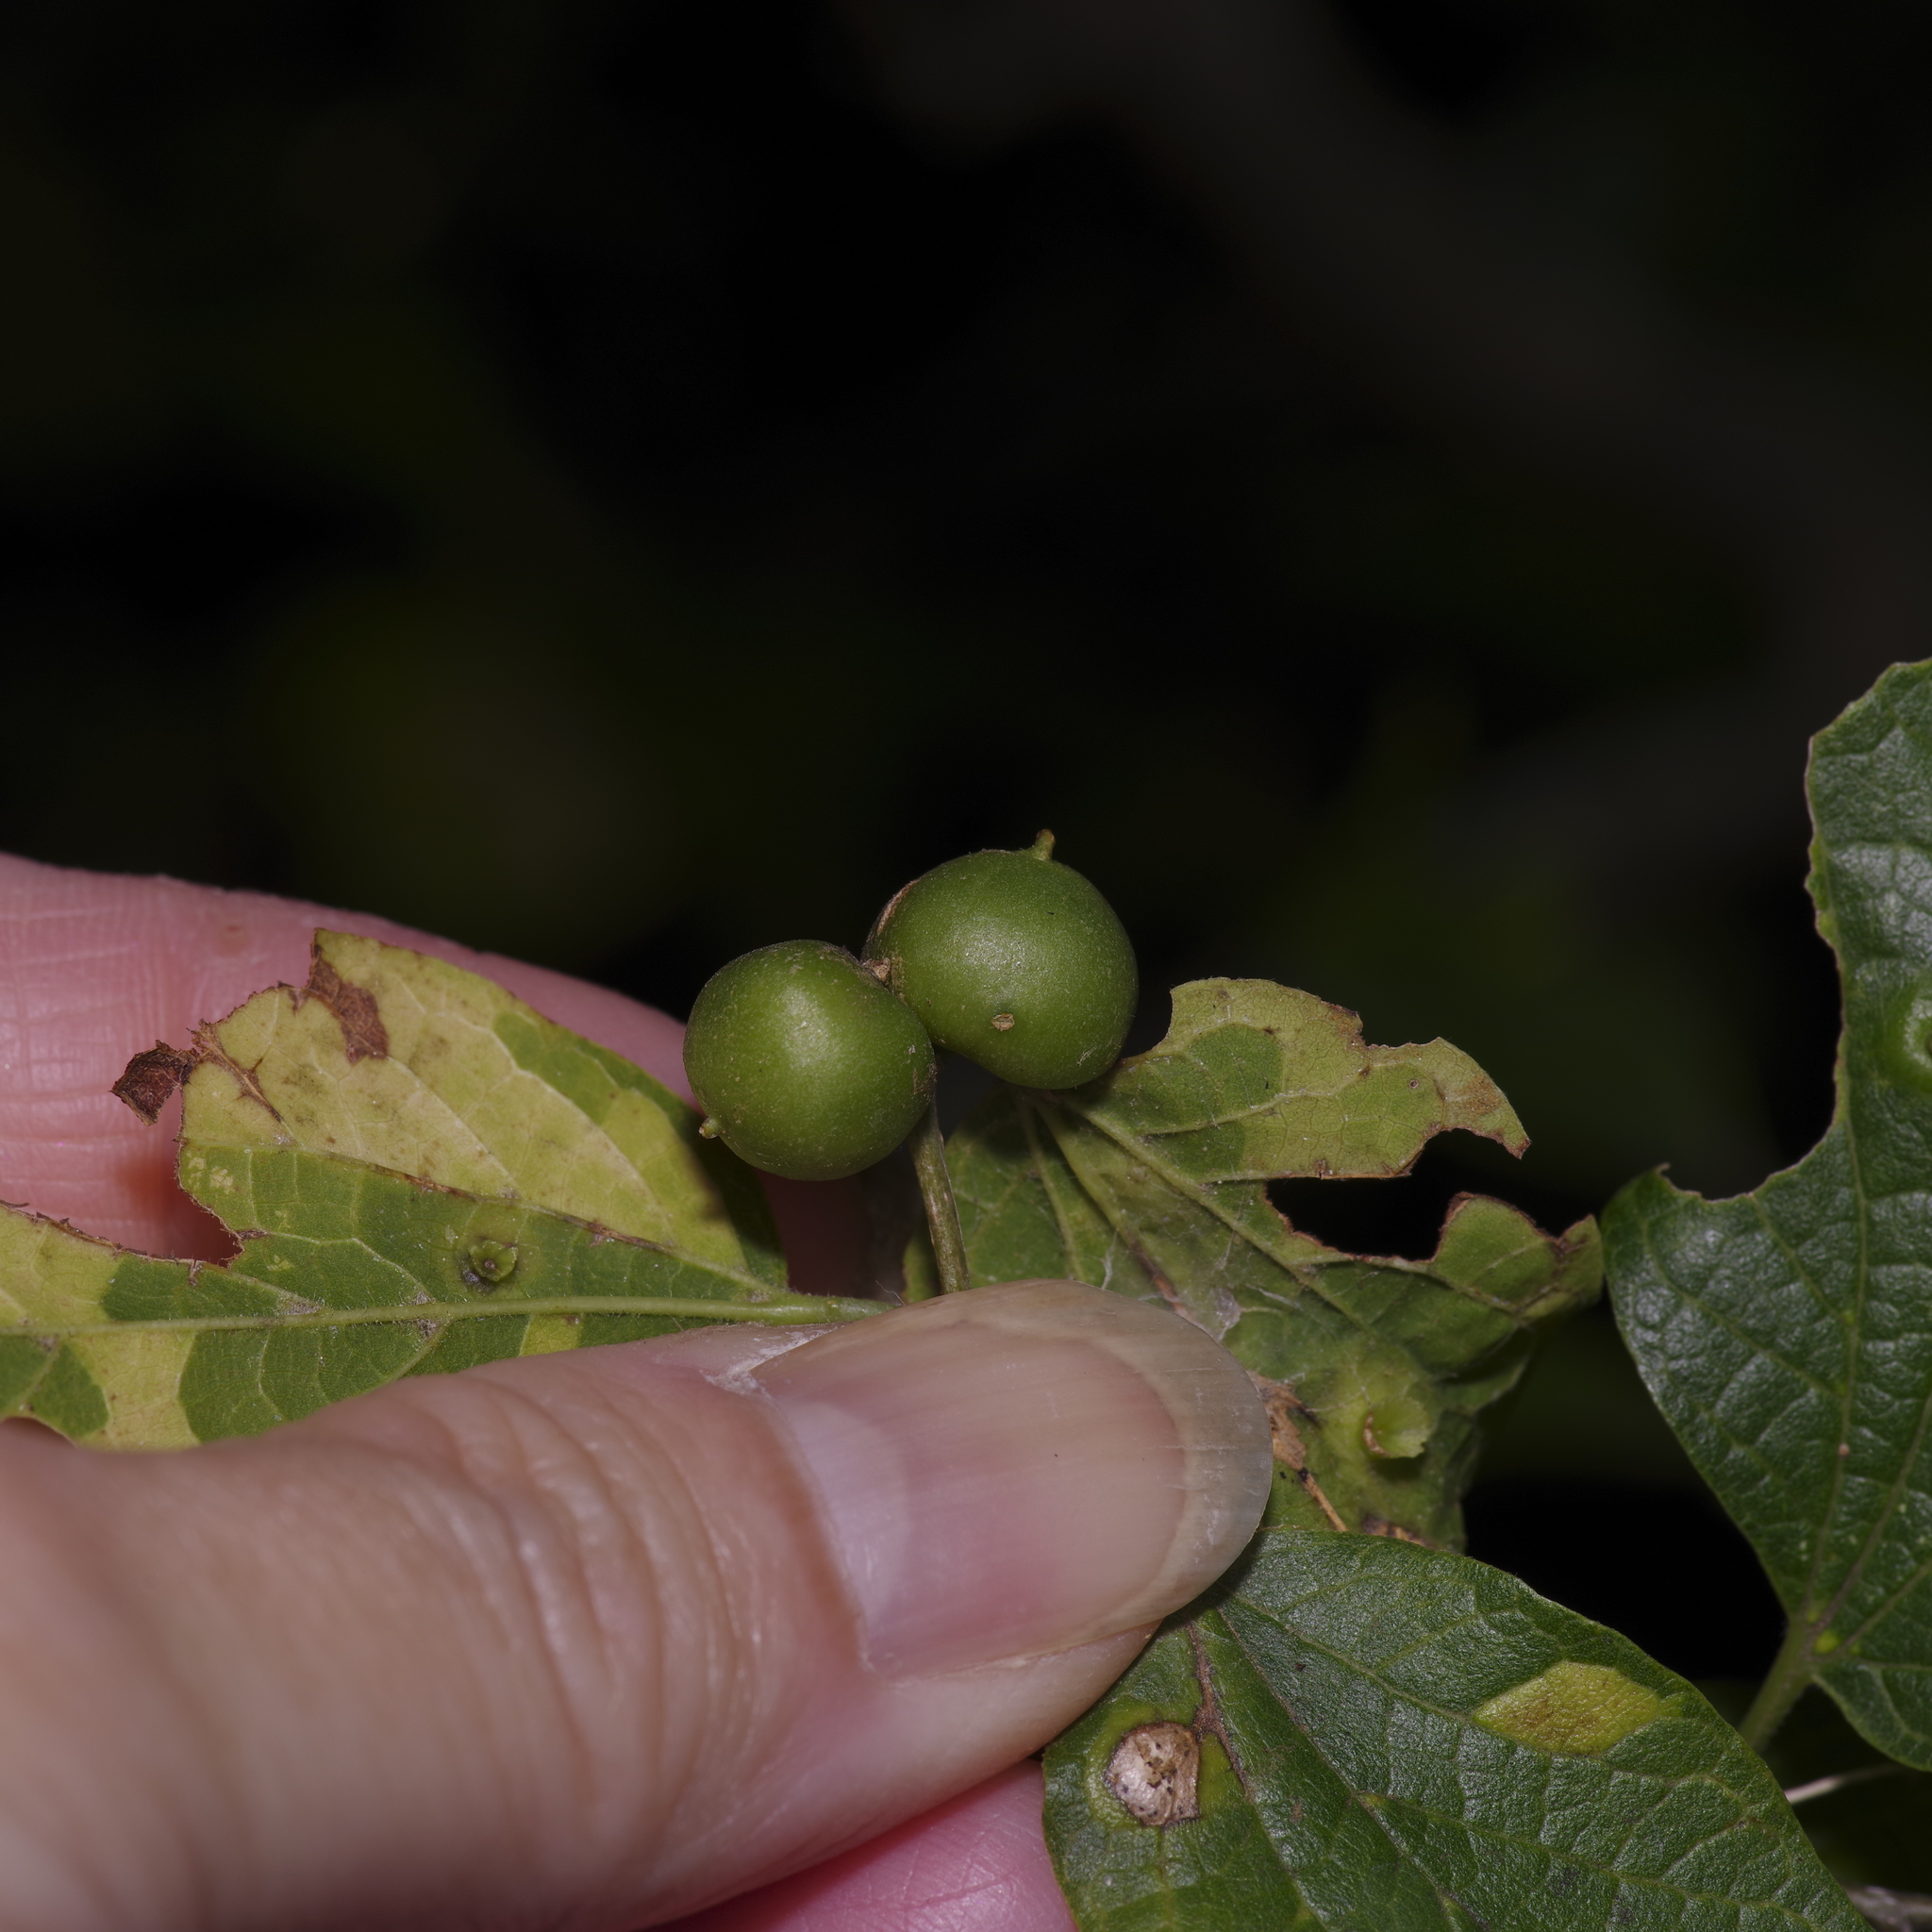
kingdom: Animalia
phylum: Arthropoda
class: Insecta
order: Diptera
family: Cecidomyiidae
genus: Celticecis
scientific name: Celticecis connata
